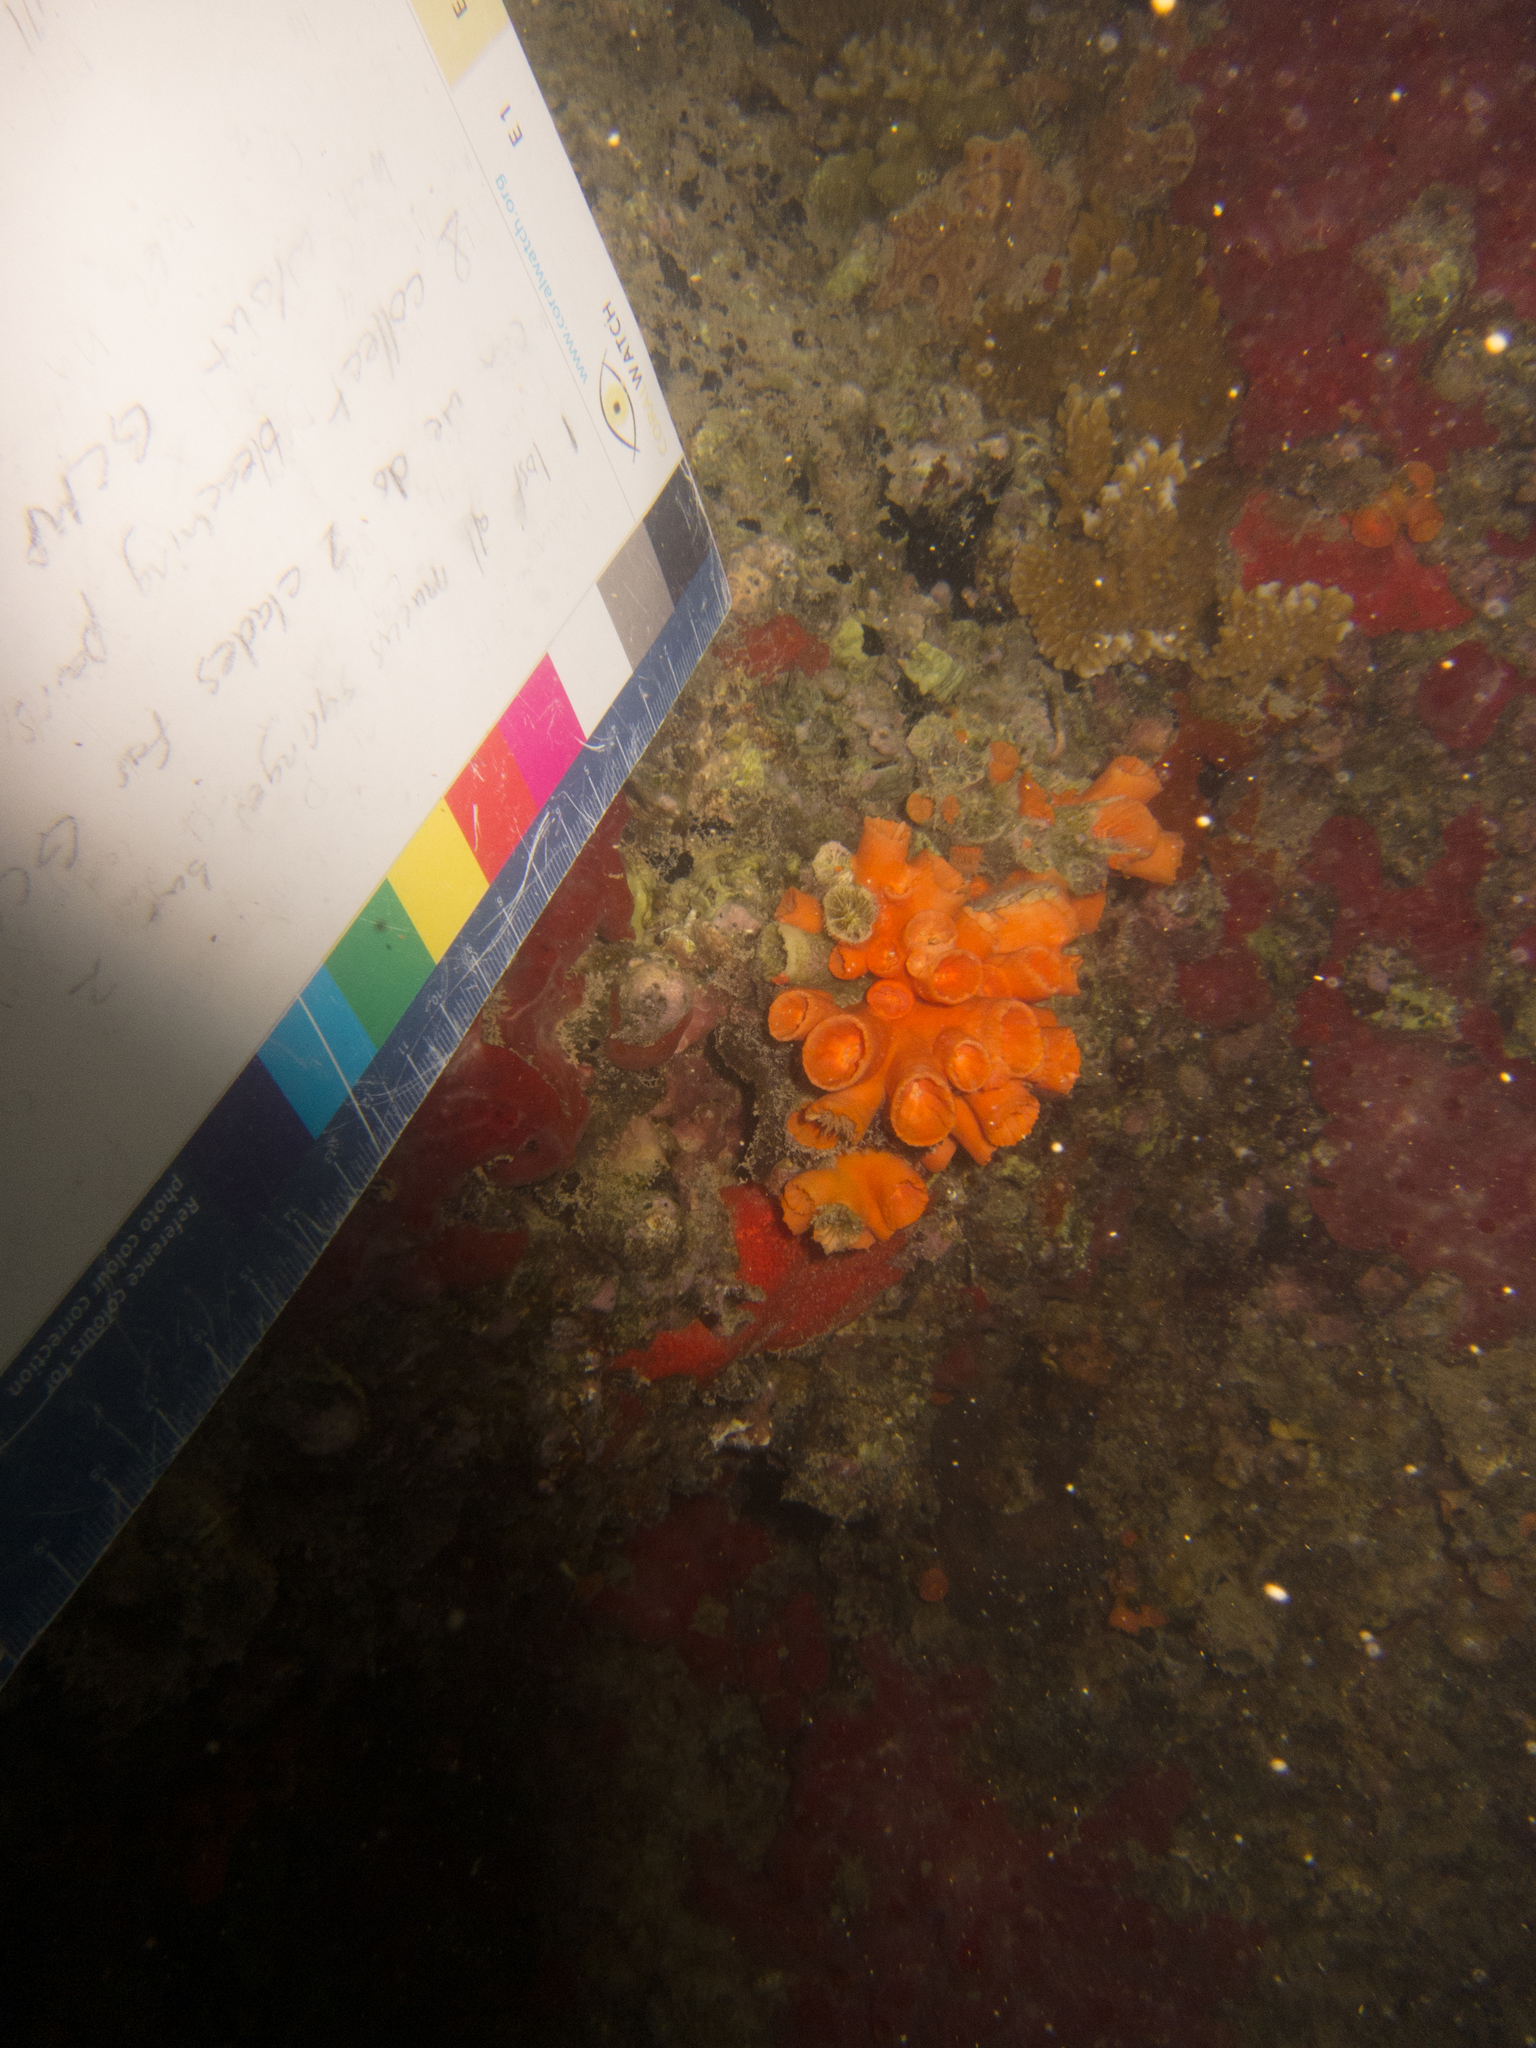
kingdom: Animalia
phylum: Cnidaria
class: Anthozoa
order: Scleractinia
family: Dendrophylliidae
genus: Tubastraea
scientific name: Tubastraea coccinea
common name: Orange cup coral
